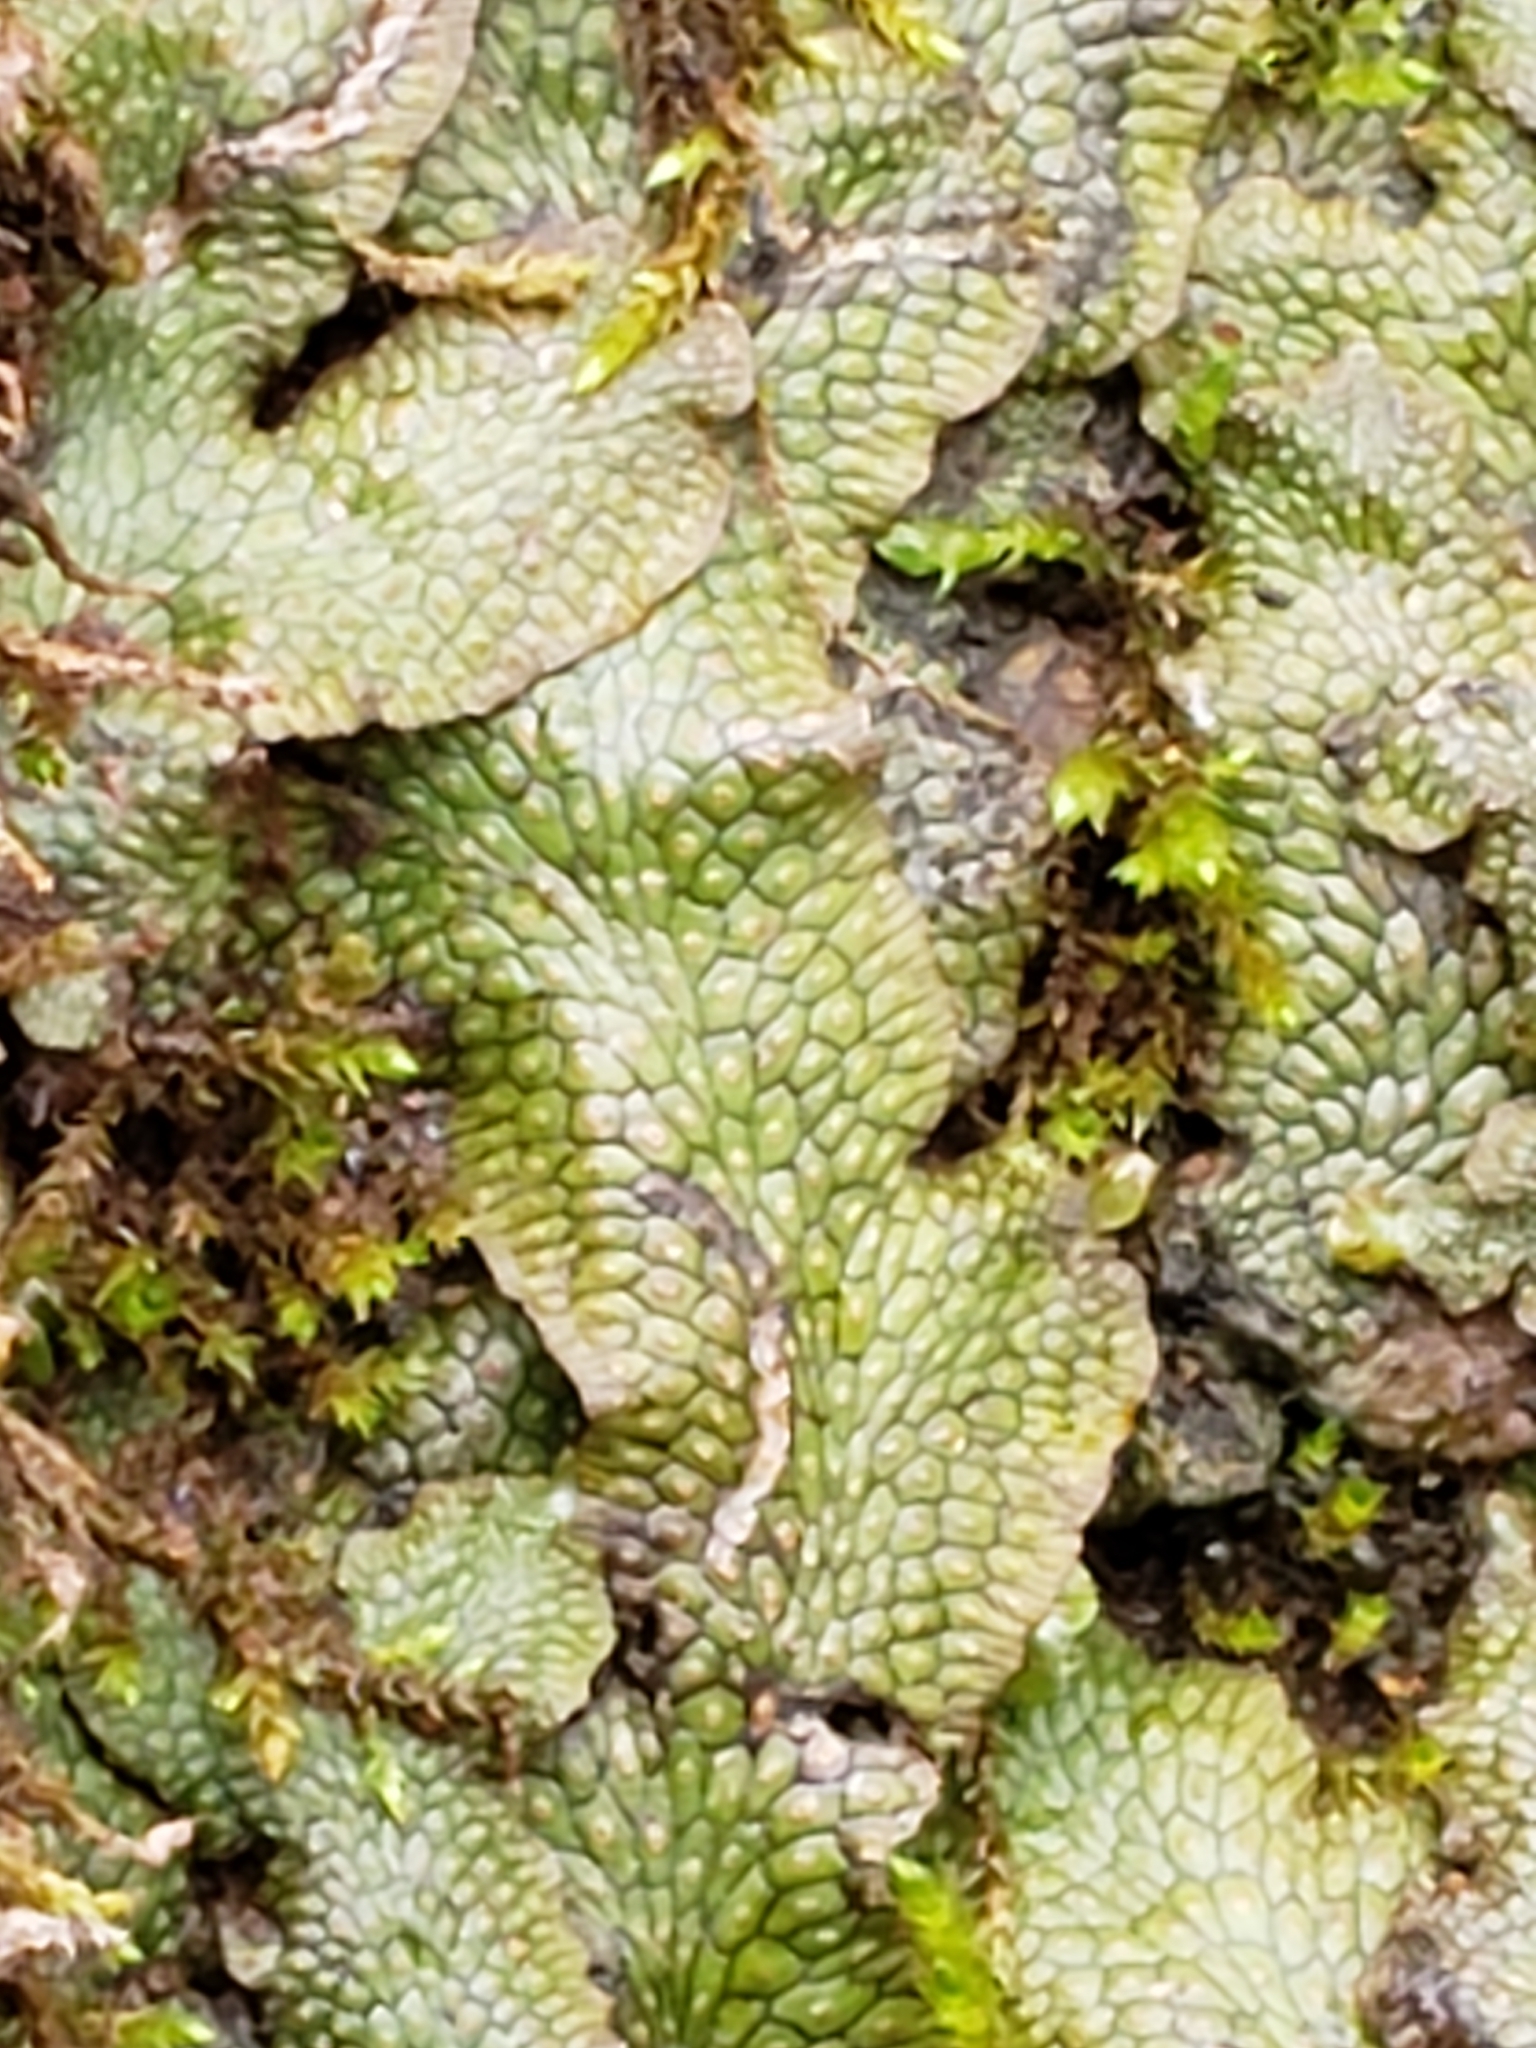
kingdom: Plantae
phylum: Marchantiophyta
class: Marchantiopsida
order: Marchantiales
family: Conocephalaceae
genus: Conocephalum
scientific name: Conocephalum salebrosum
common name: Cat-tongue liverwort
